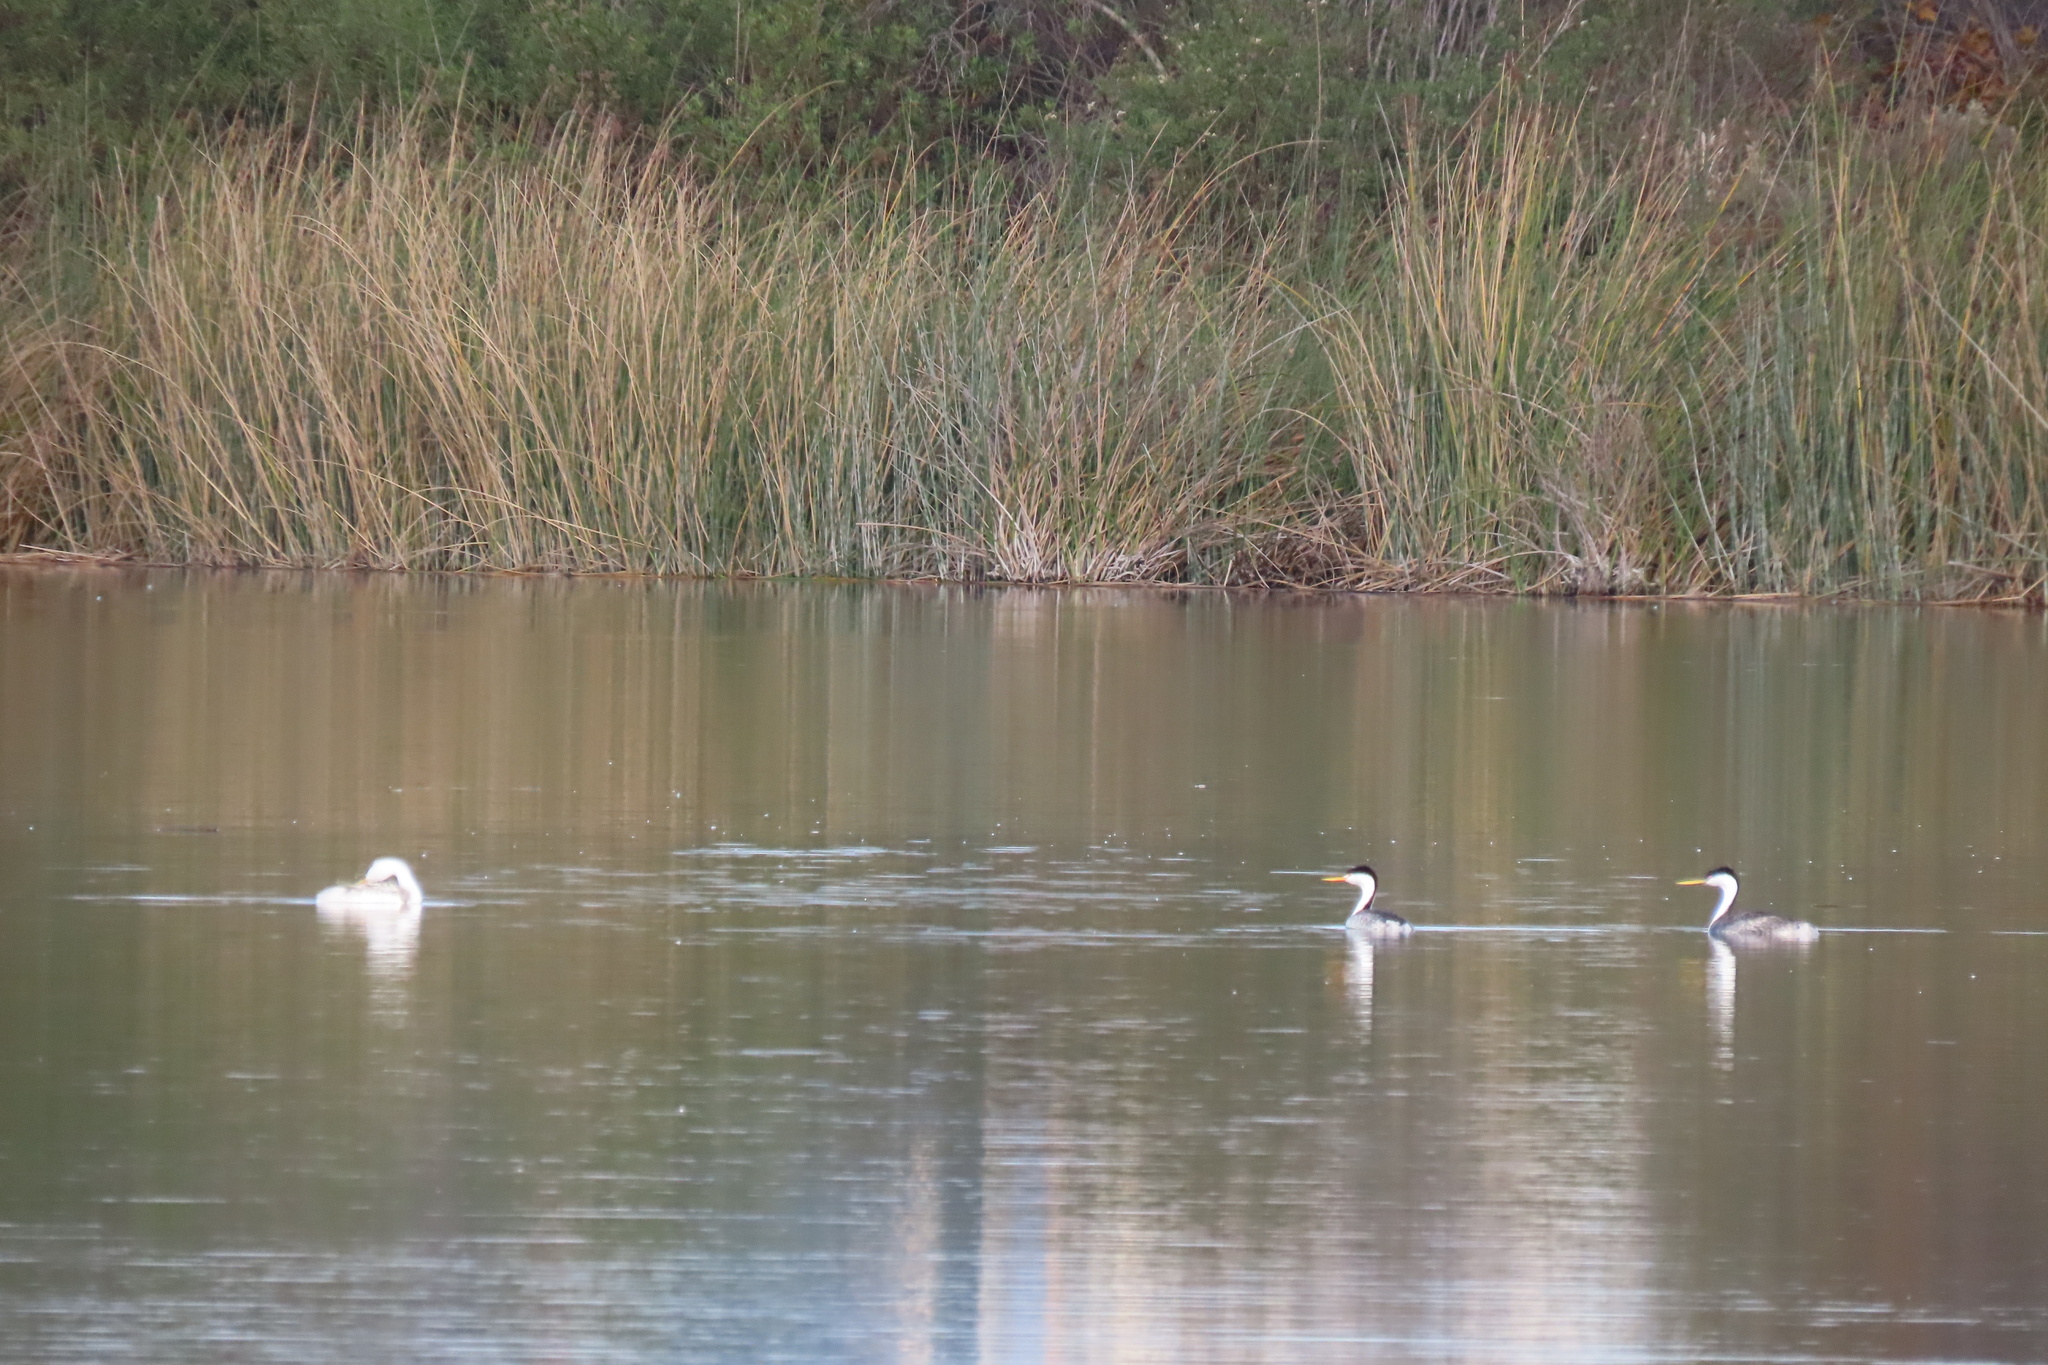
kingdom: Animalia
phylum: Chordata
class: Aves
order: Podicipediformes
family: Podicipedidae
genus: Aechmophorus
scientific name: Aechmophorus occidentalis
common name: Western grebe
